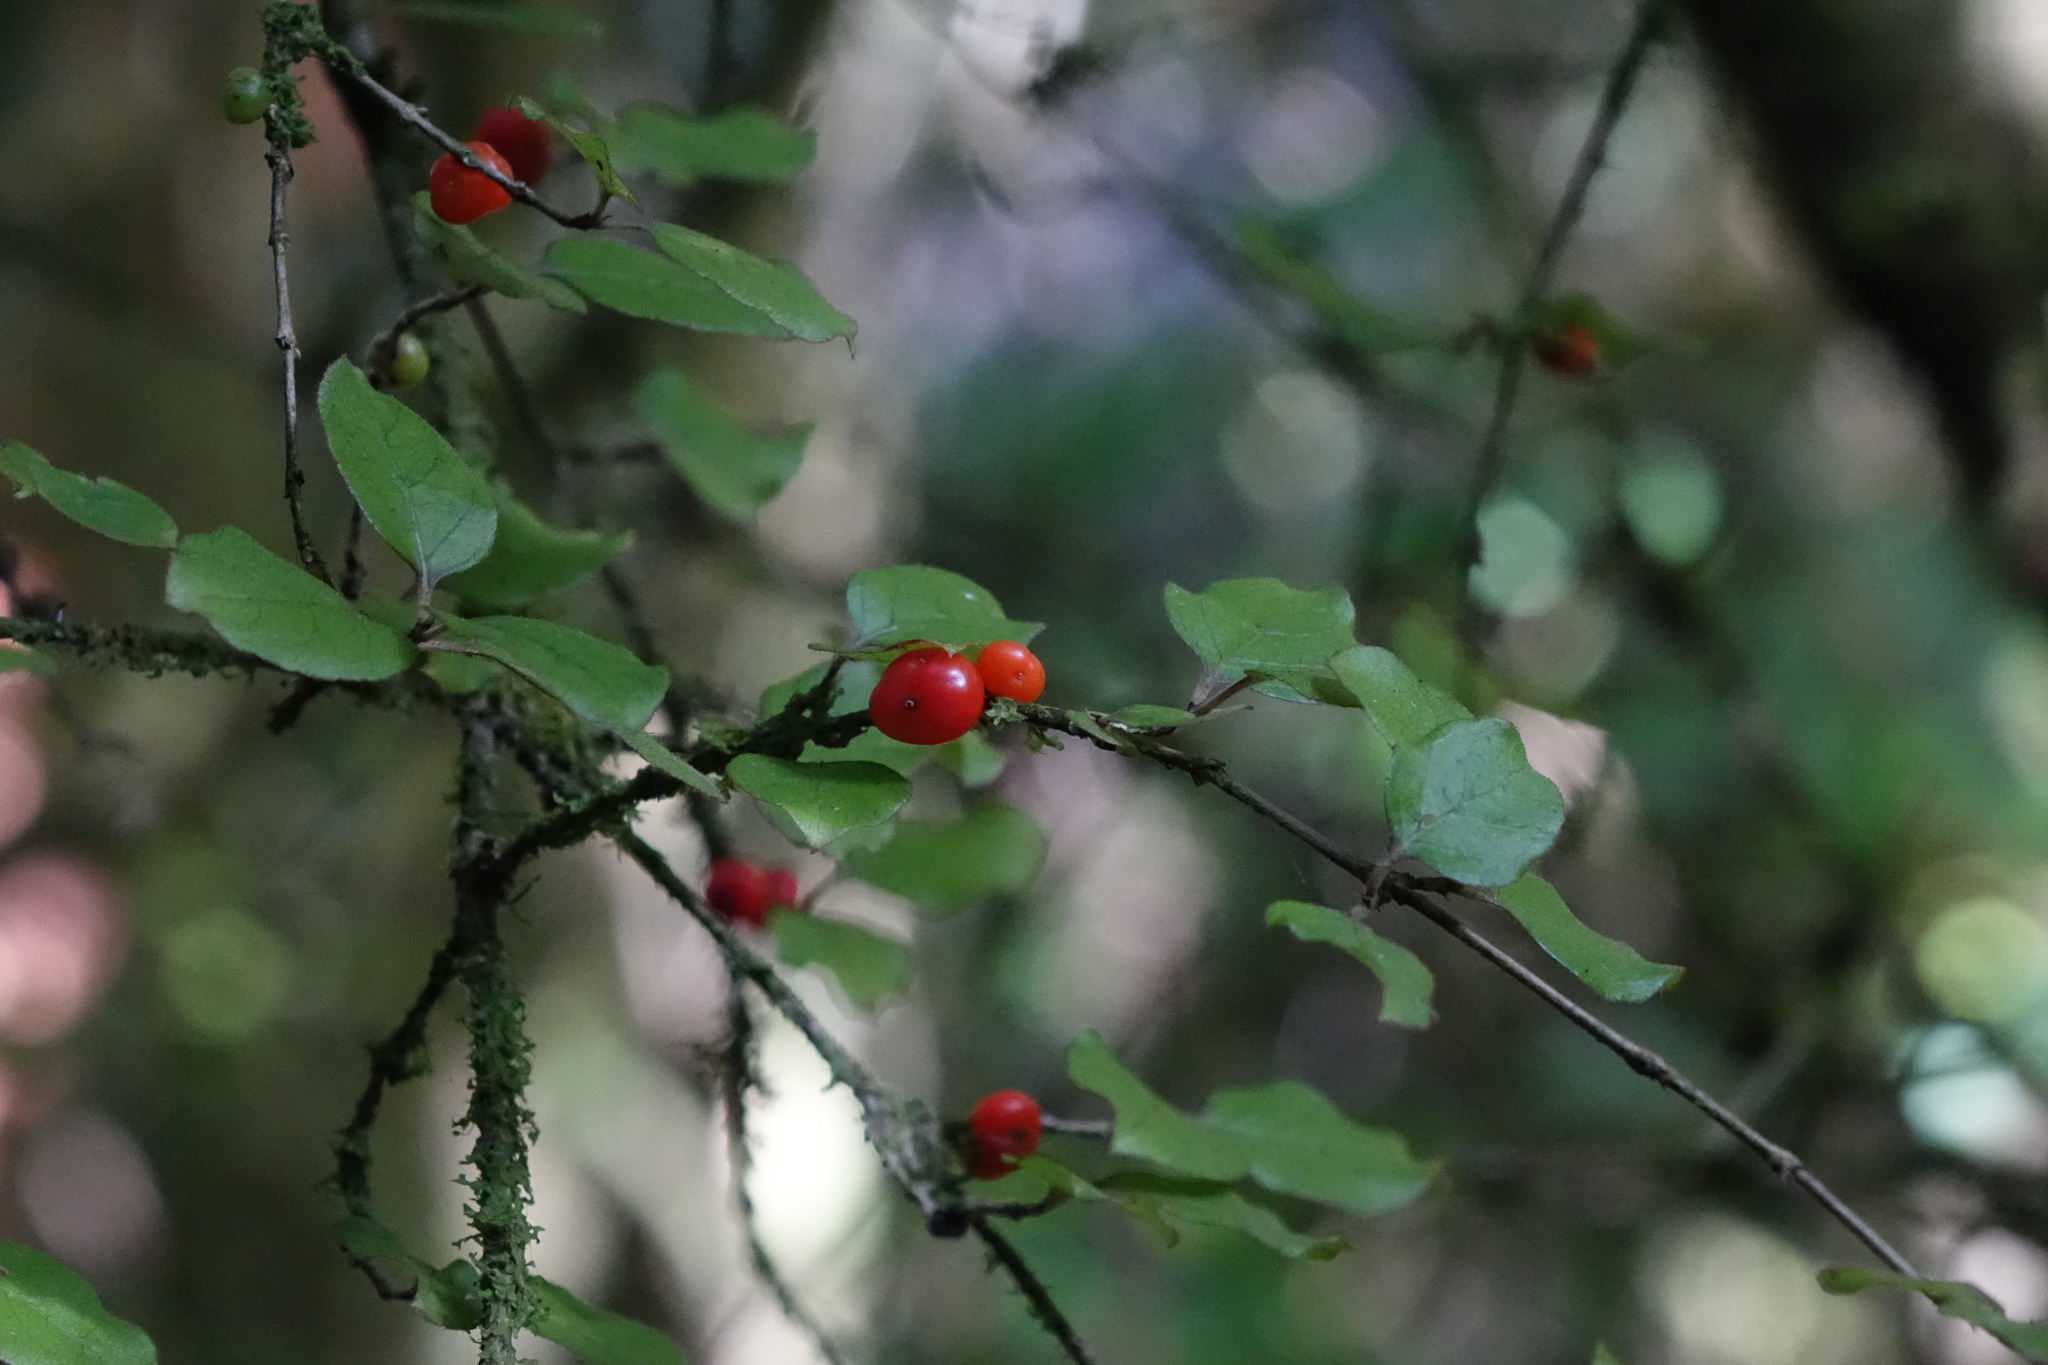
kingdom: Plantae
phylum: Tracheophyta
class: Magnoliopsida
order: Gentianales
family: Rubiaceae
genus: Coprosma
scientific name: Coprosma rotundifolia
